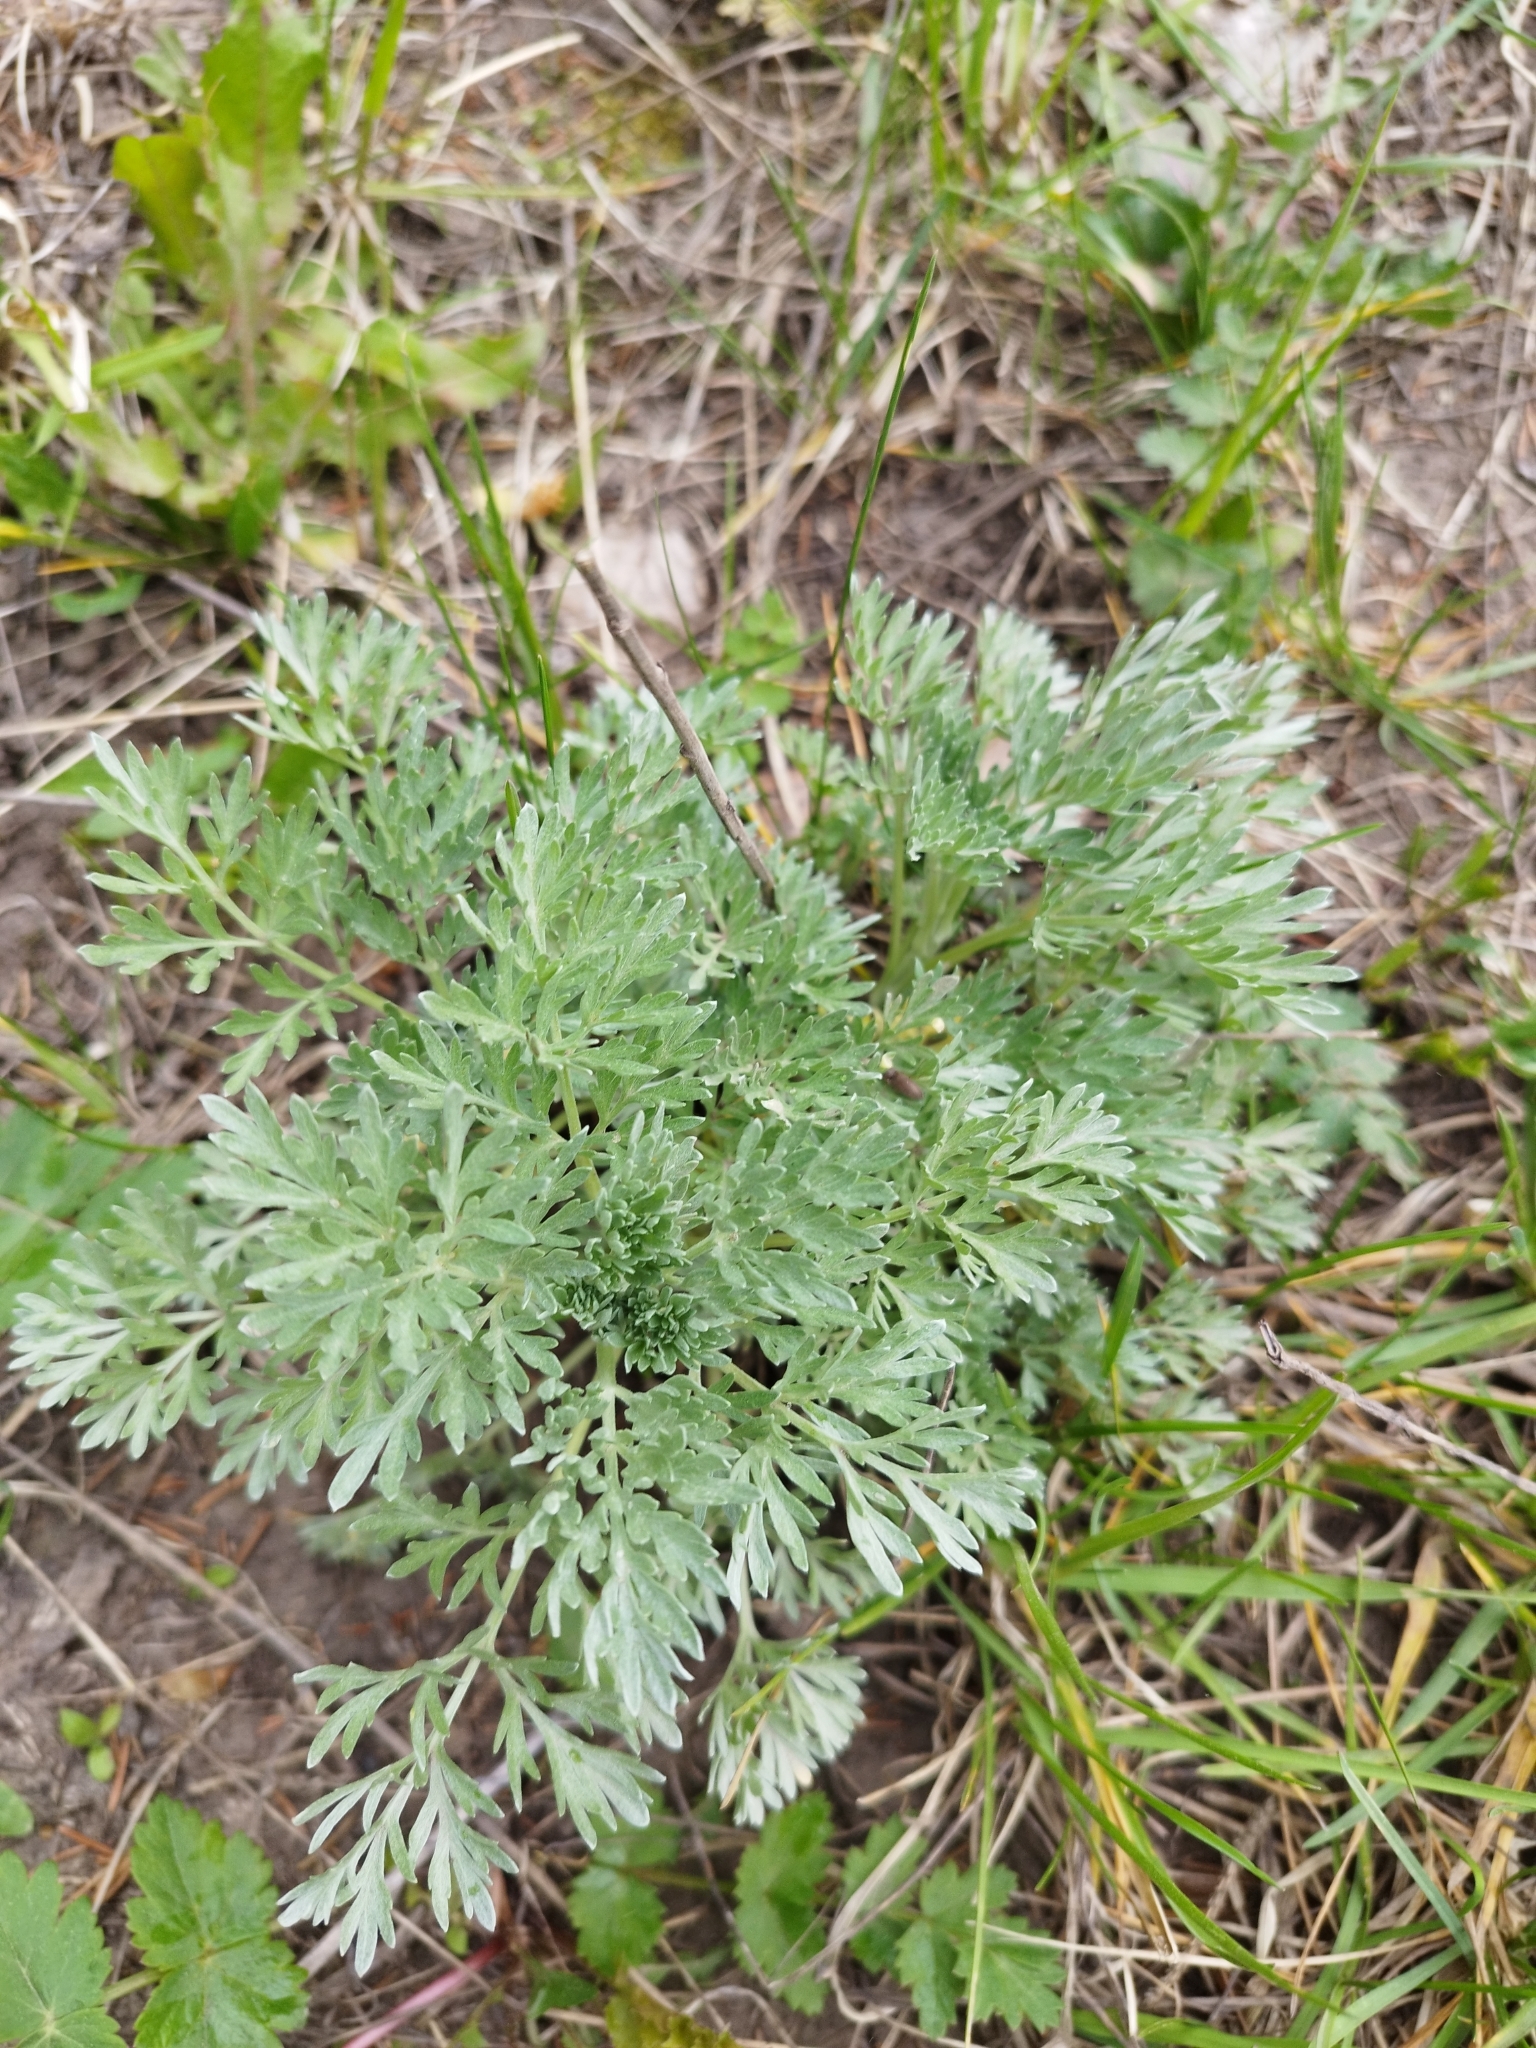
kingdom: Plantae
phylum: Tracheophyta
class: Magnoliopsida
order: Asterales
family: Asteraceae
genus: Artemisia
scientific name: Artemisia absinthium
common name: Wormwood
